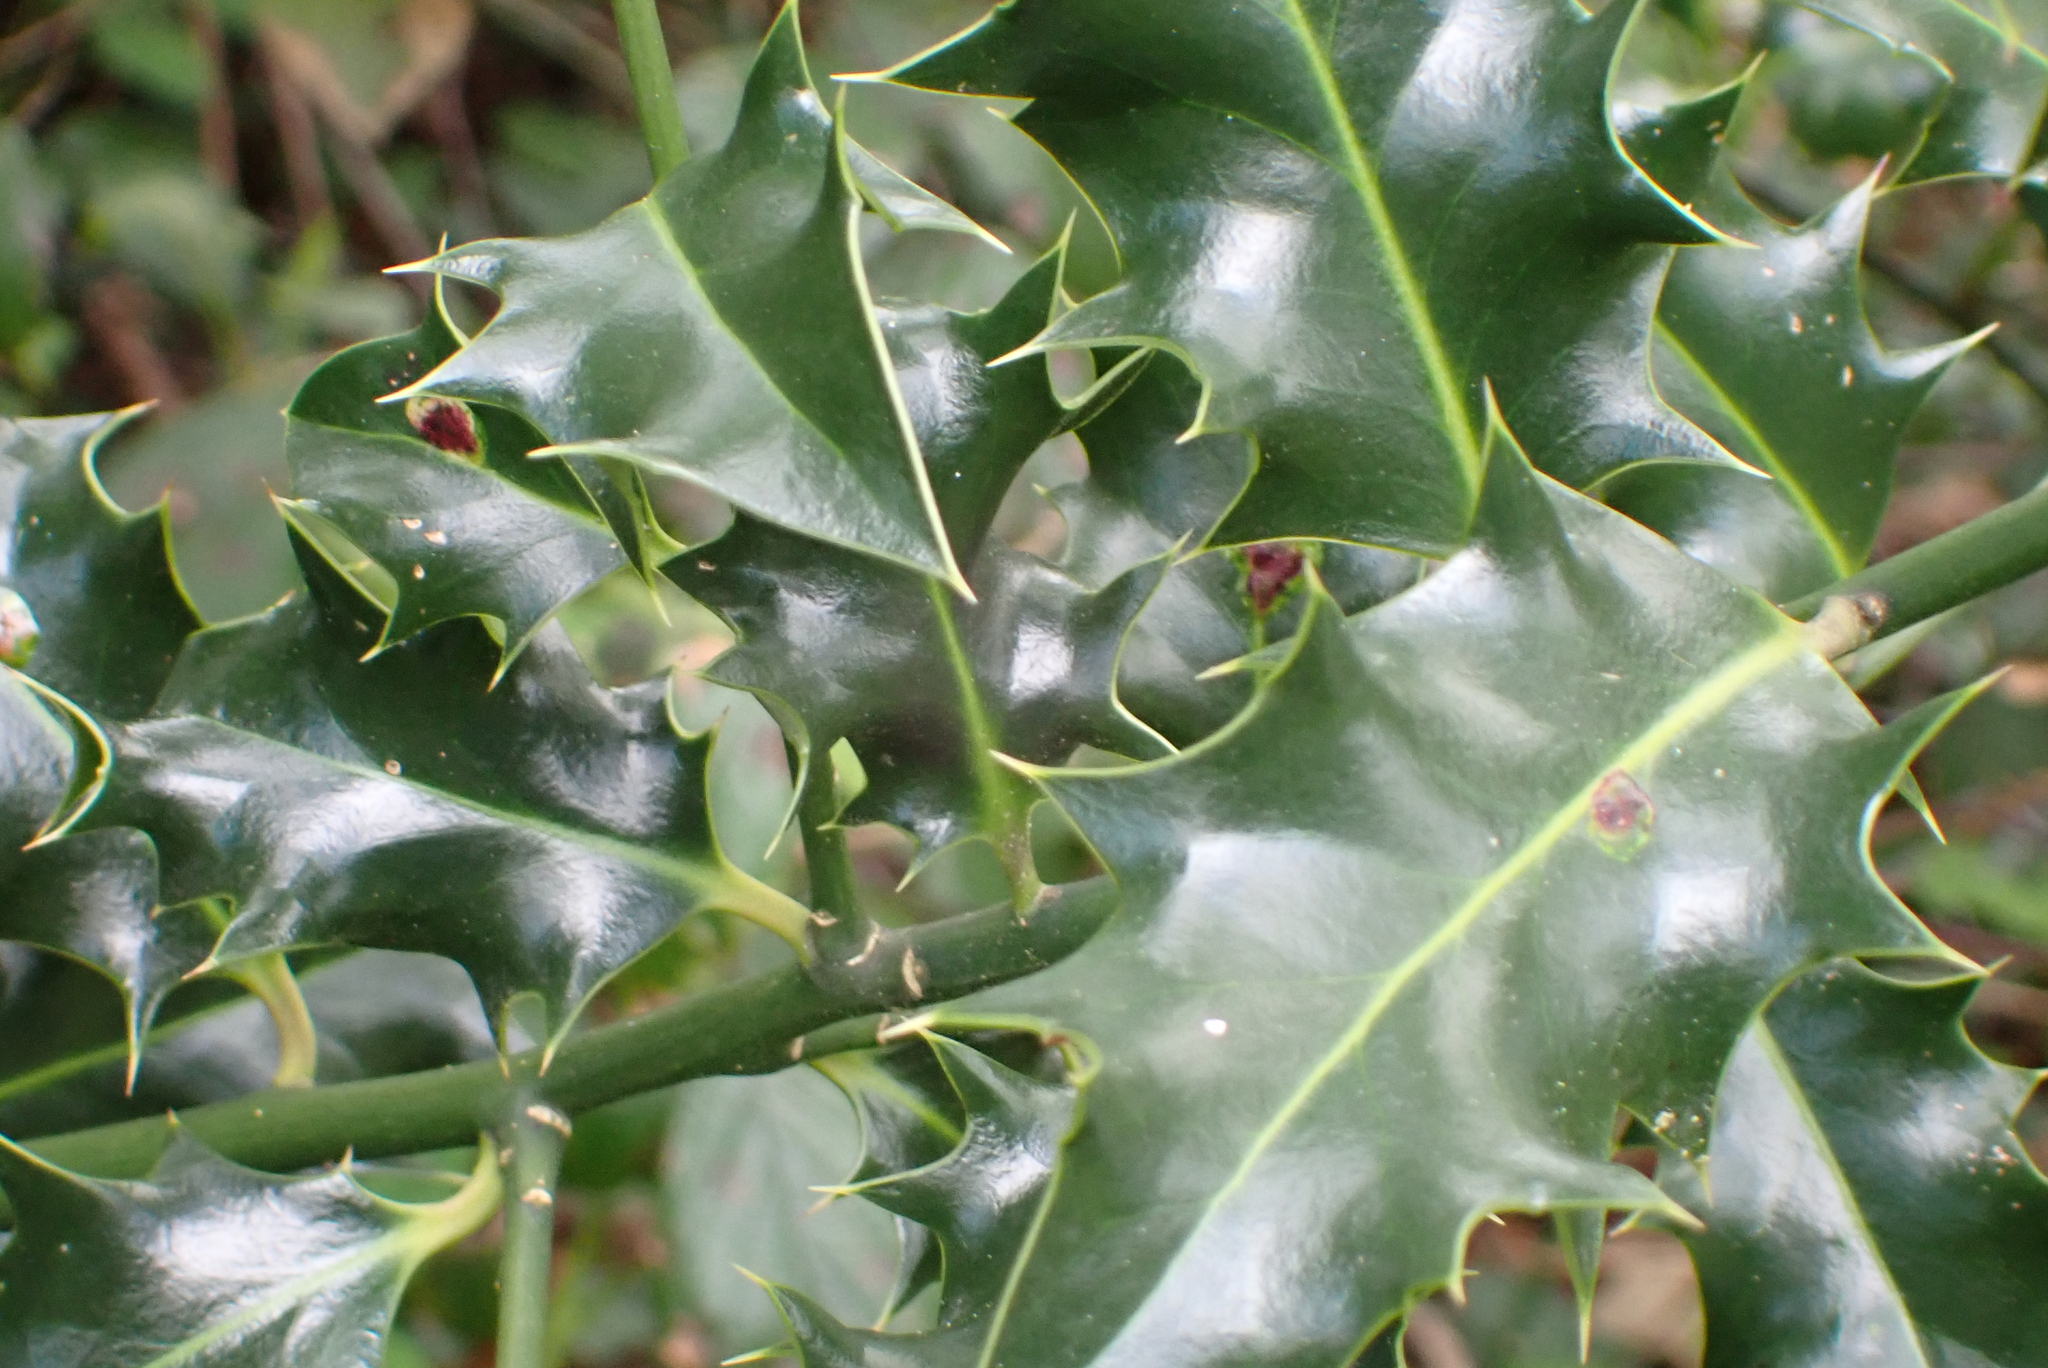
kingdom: Plantae
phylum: Tracheophyta
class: Magnoliopsida
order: Aquifoliales
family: Aquifoliaceae
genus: Ilex
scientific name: Ilex aquifolium
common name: English holly
